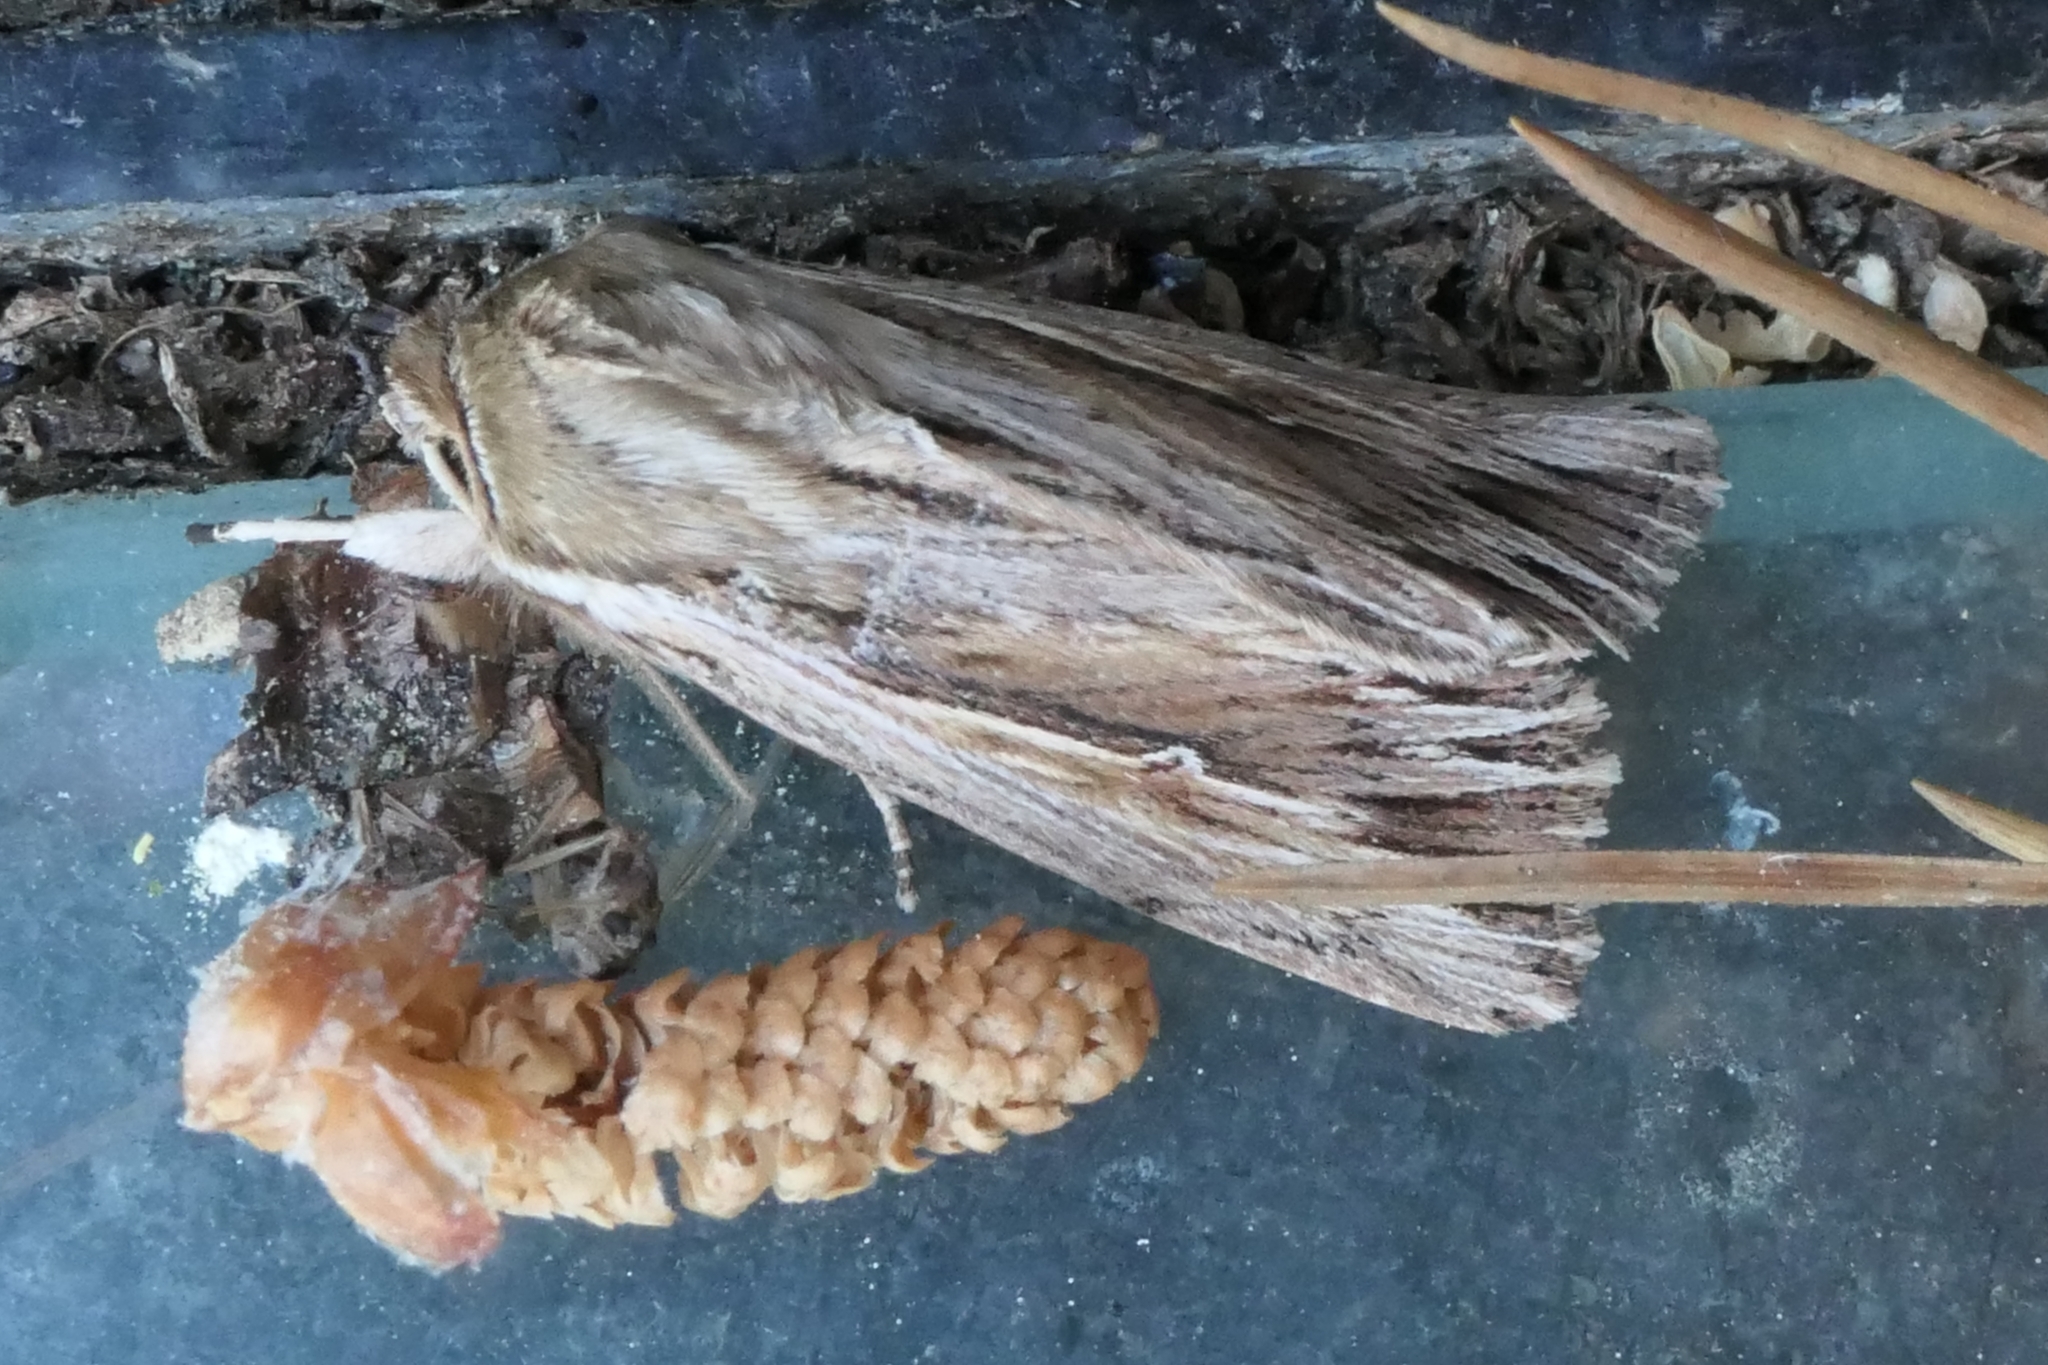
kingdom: Animalia
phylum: Arthropoda
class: Insecta
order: Lepidoptera
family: Noctuidae
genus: Persectania
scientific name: Persectania aversa
